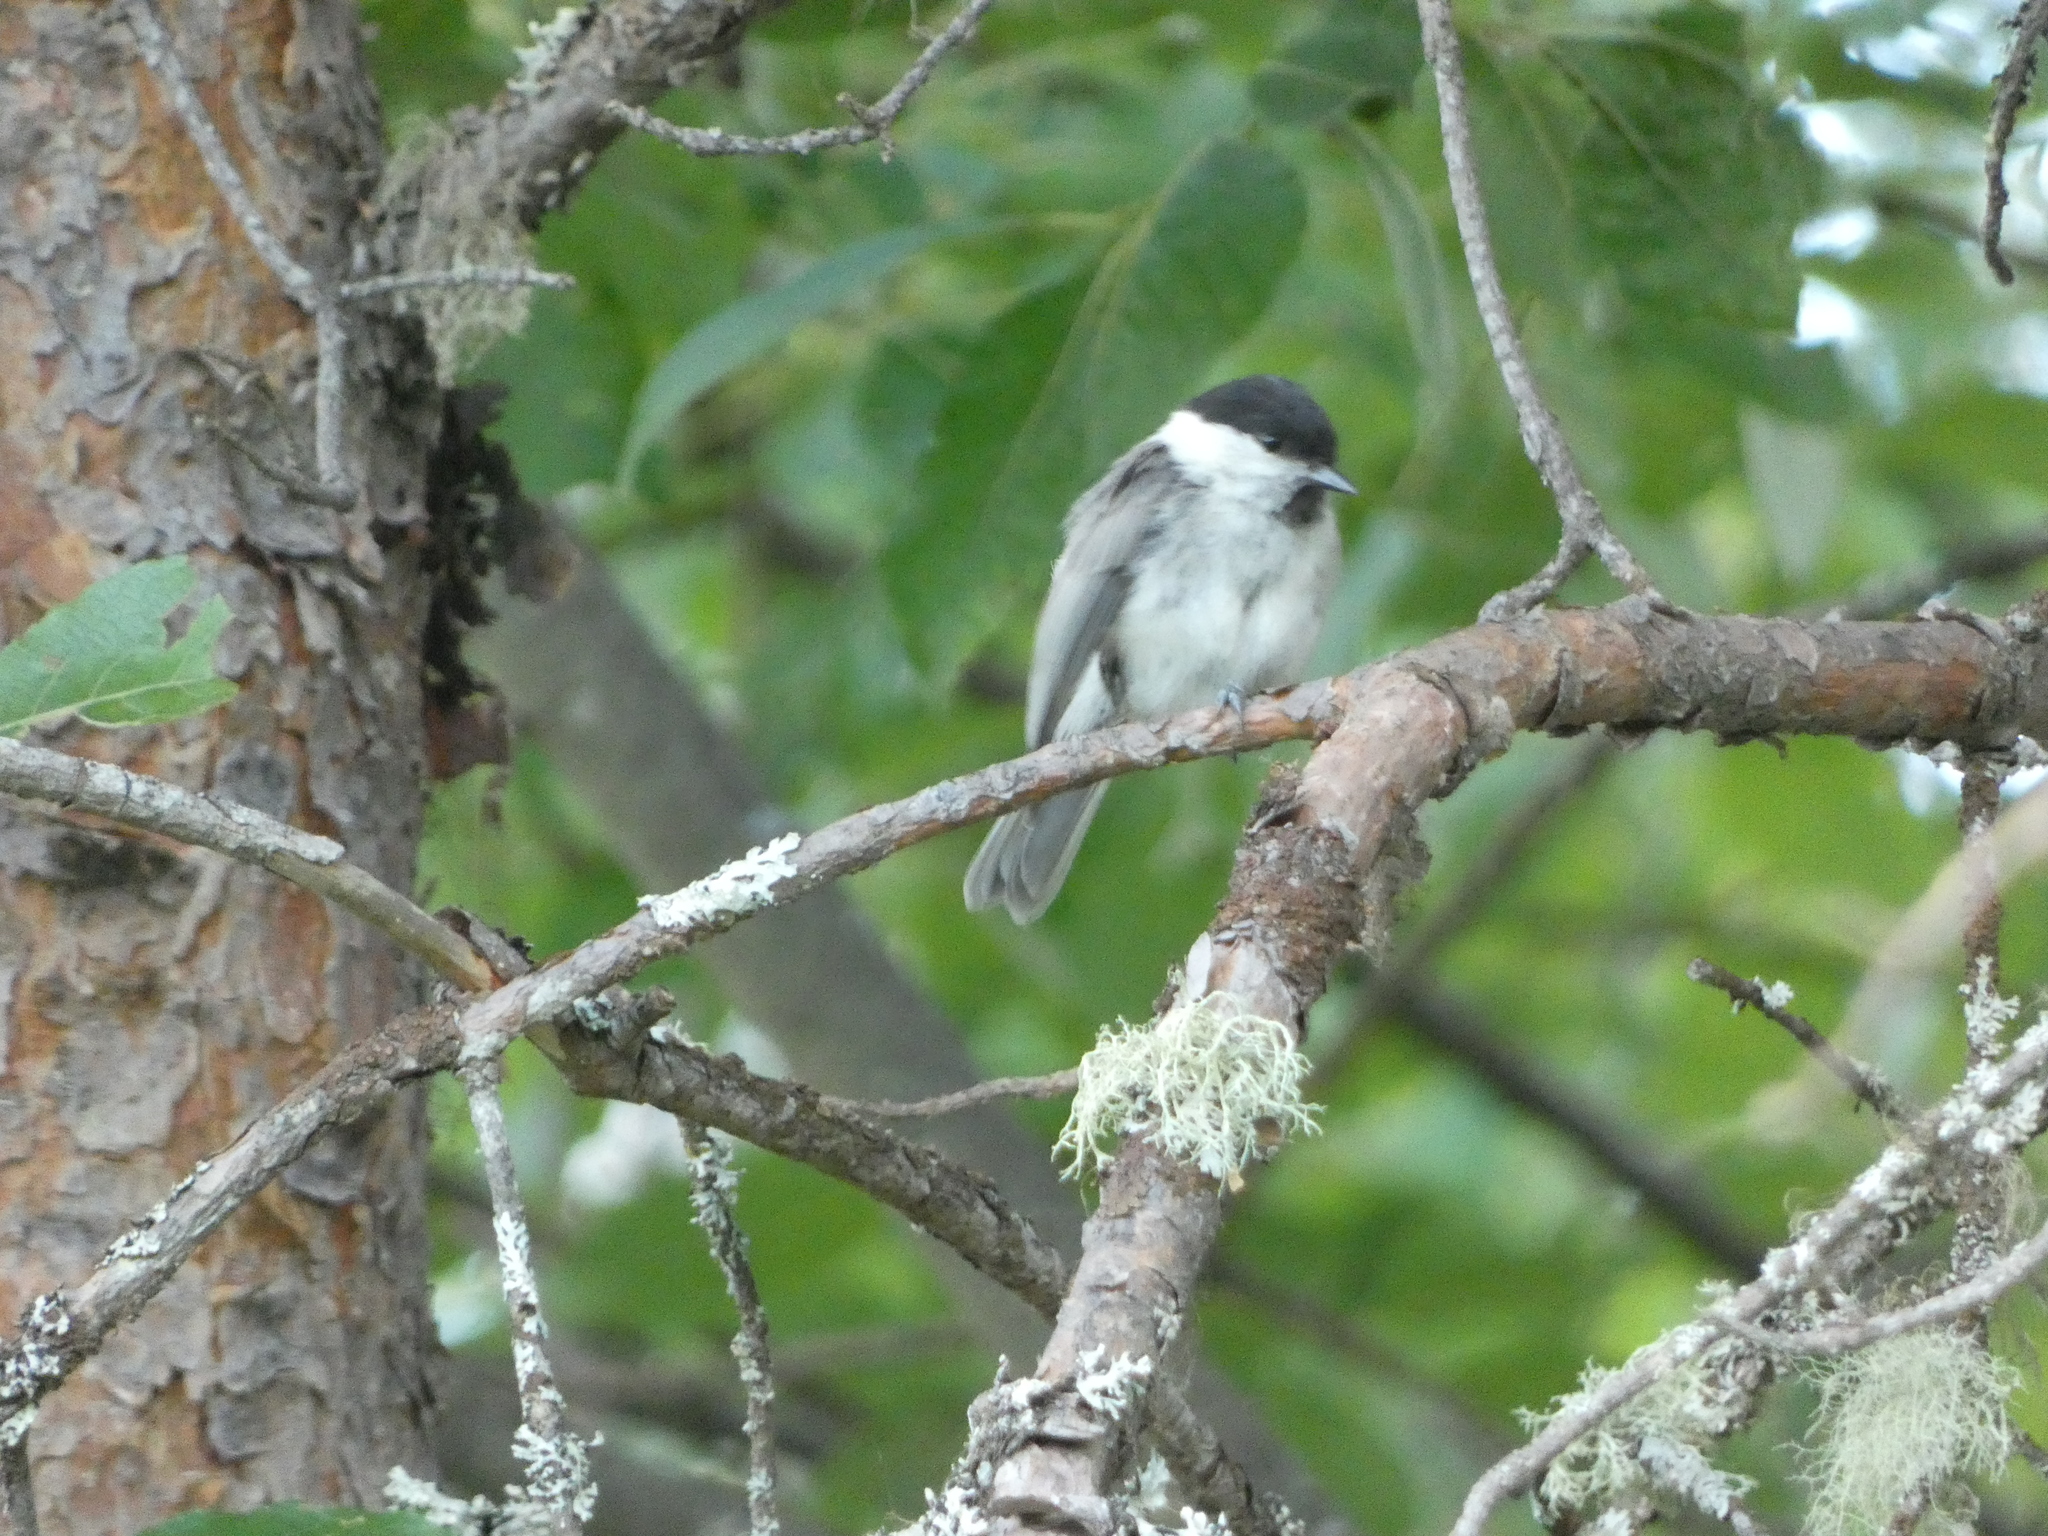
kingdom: Animalia
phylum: Chordata
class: Aves
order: Passeriformes
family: Paridae
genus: Poecile
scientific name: Poecile montanus
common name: Willow tit
